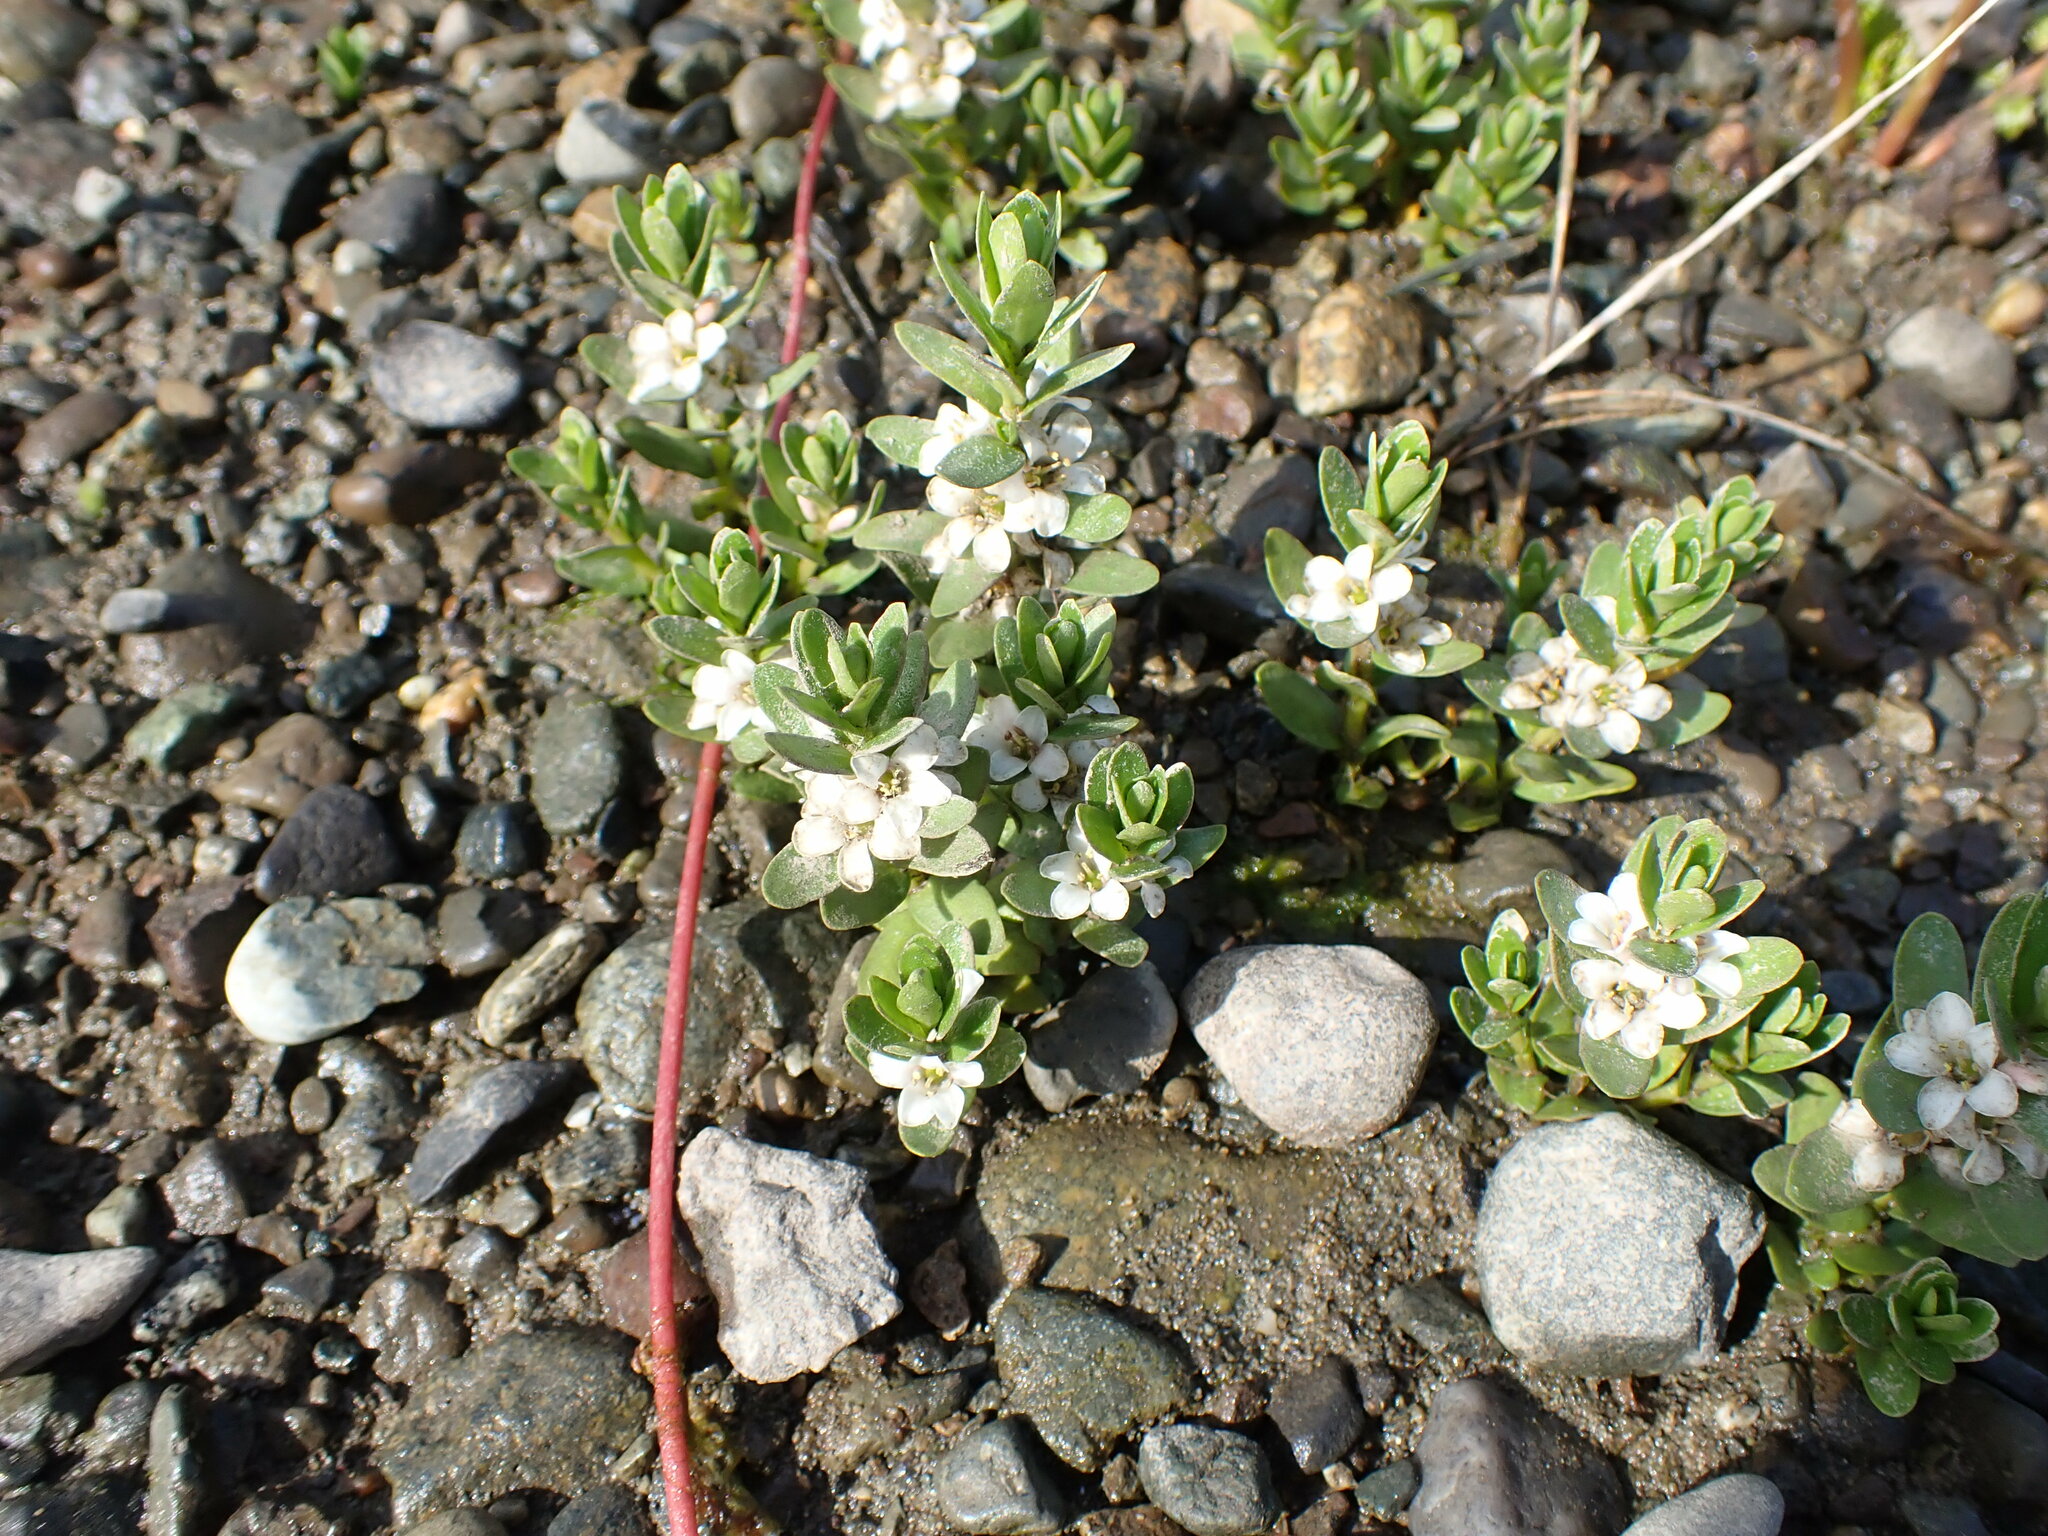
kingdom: Plantae
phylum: Tracheophyta
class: Magnoliopsida
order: Ericales
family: Primulaceae
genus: Lysimachia
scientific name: Lysimachia maritima
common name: Sea milkwort
